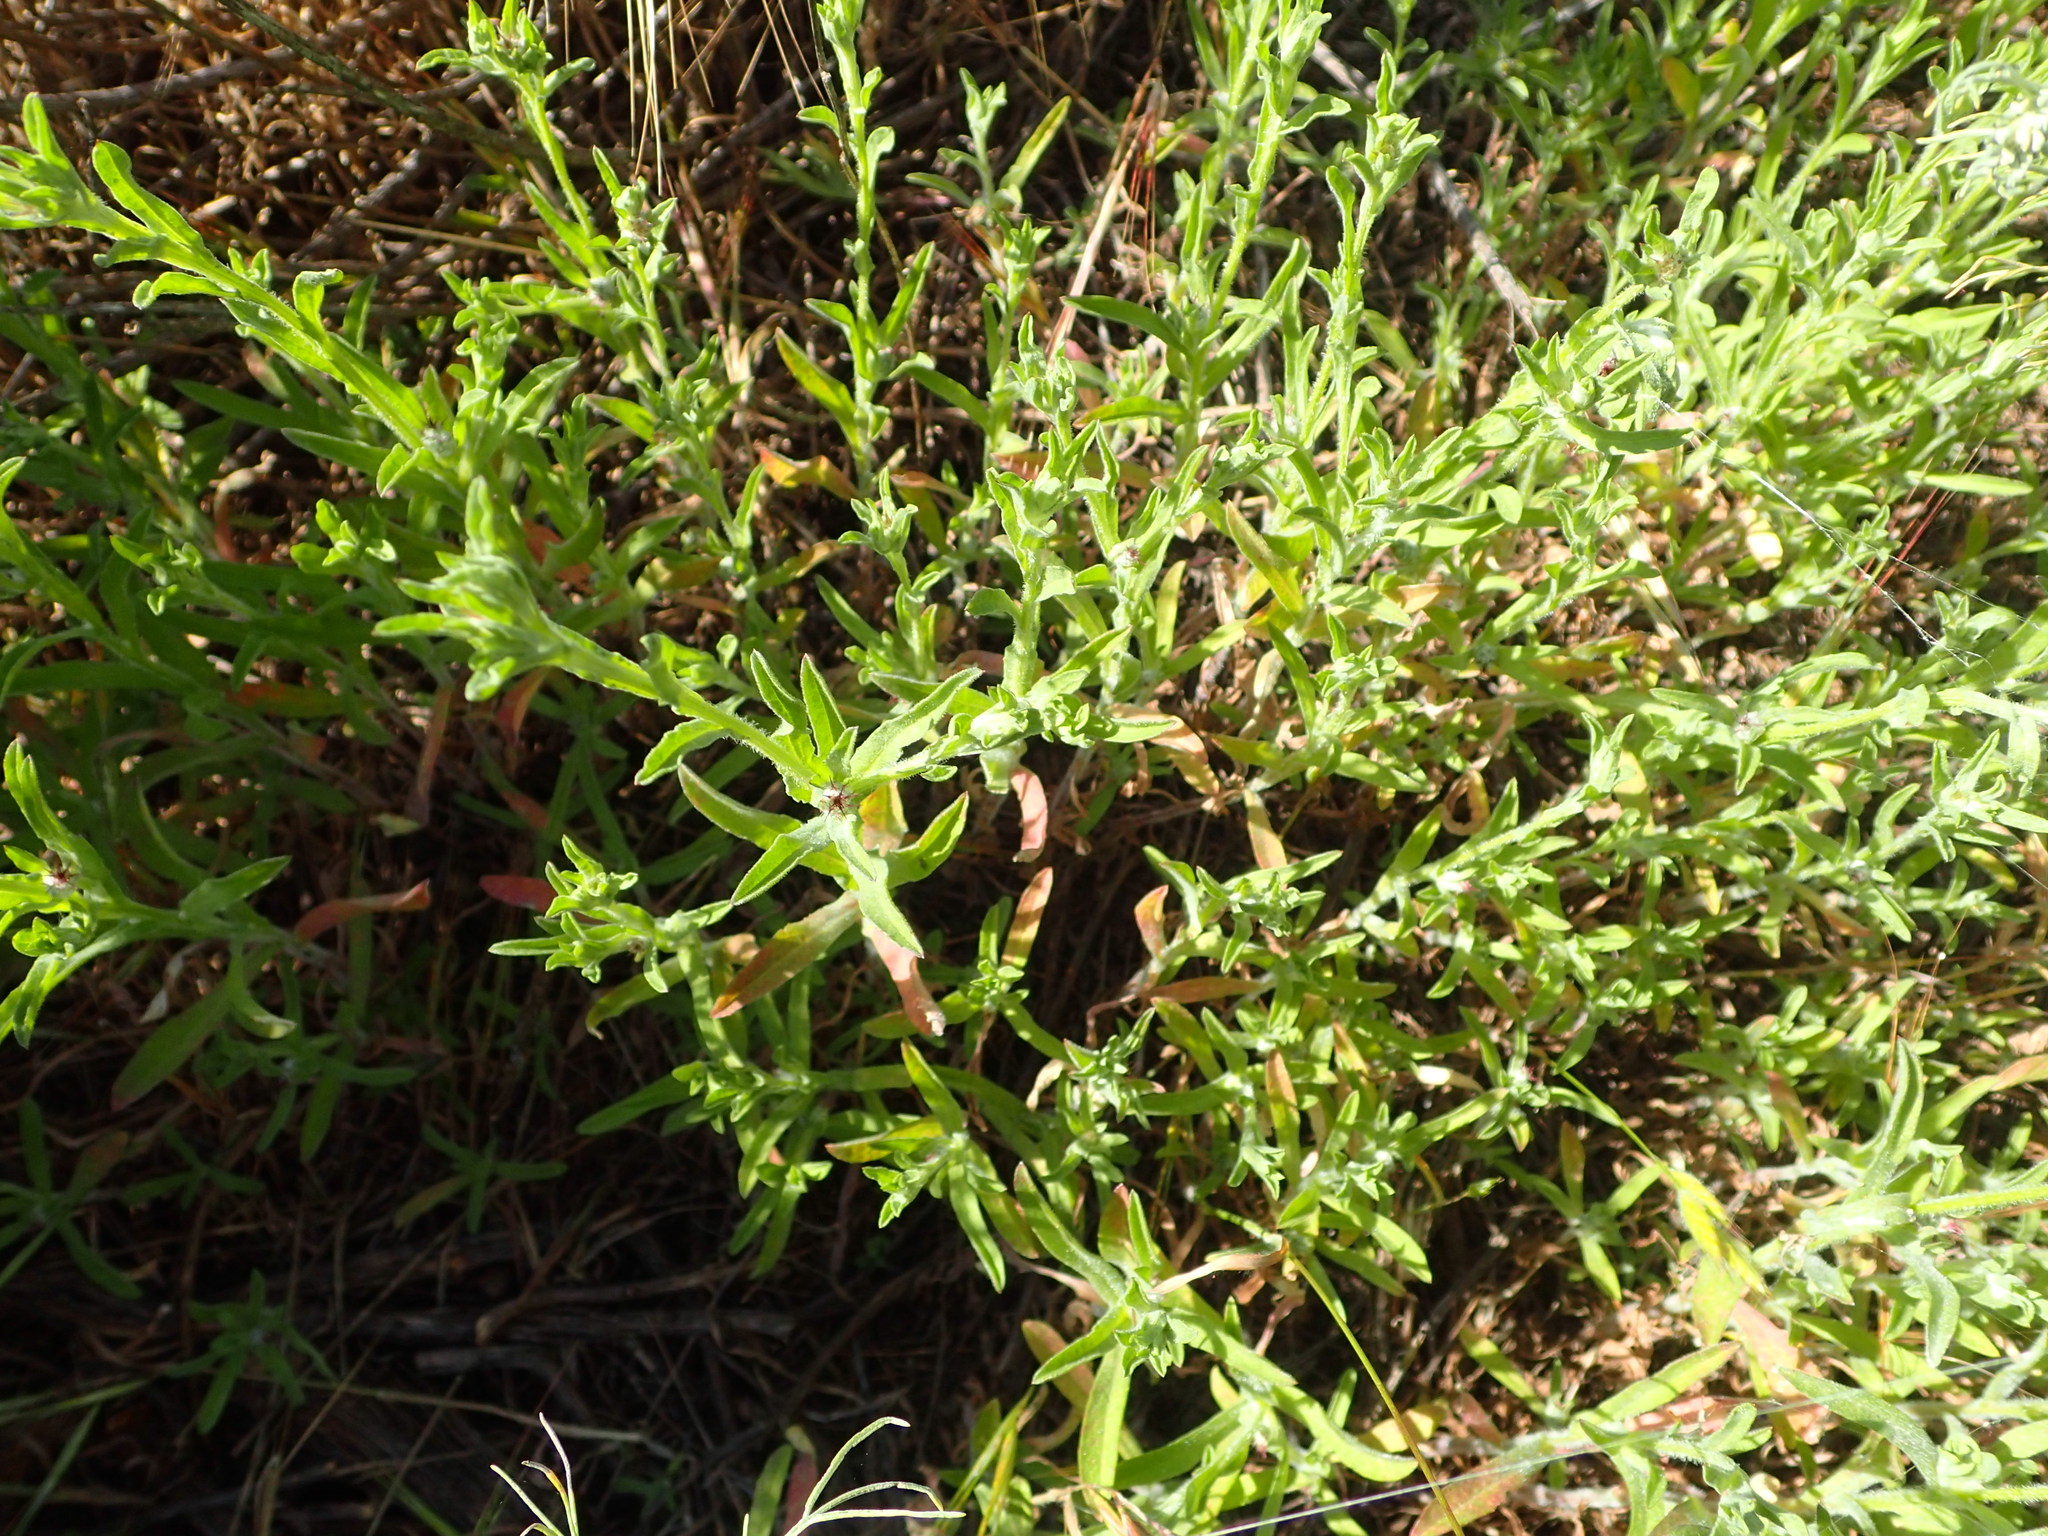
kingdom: Plantae
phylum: Tracheophyta
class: Magnoliopsida
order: Asterales
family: Asteraceae
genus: Centaurea
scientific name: Centaurea melitensis
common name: Maltese star-thistle
